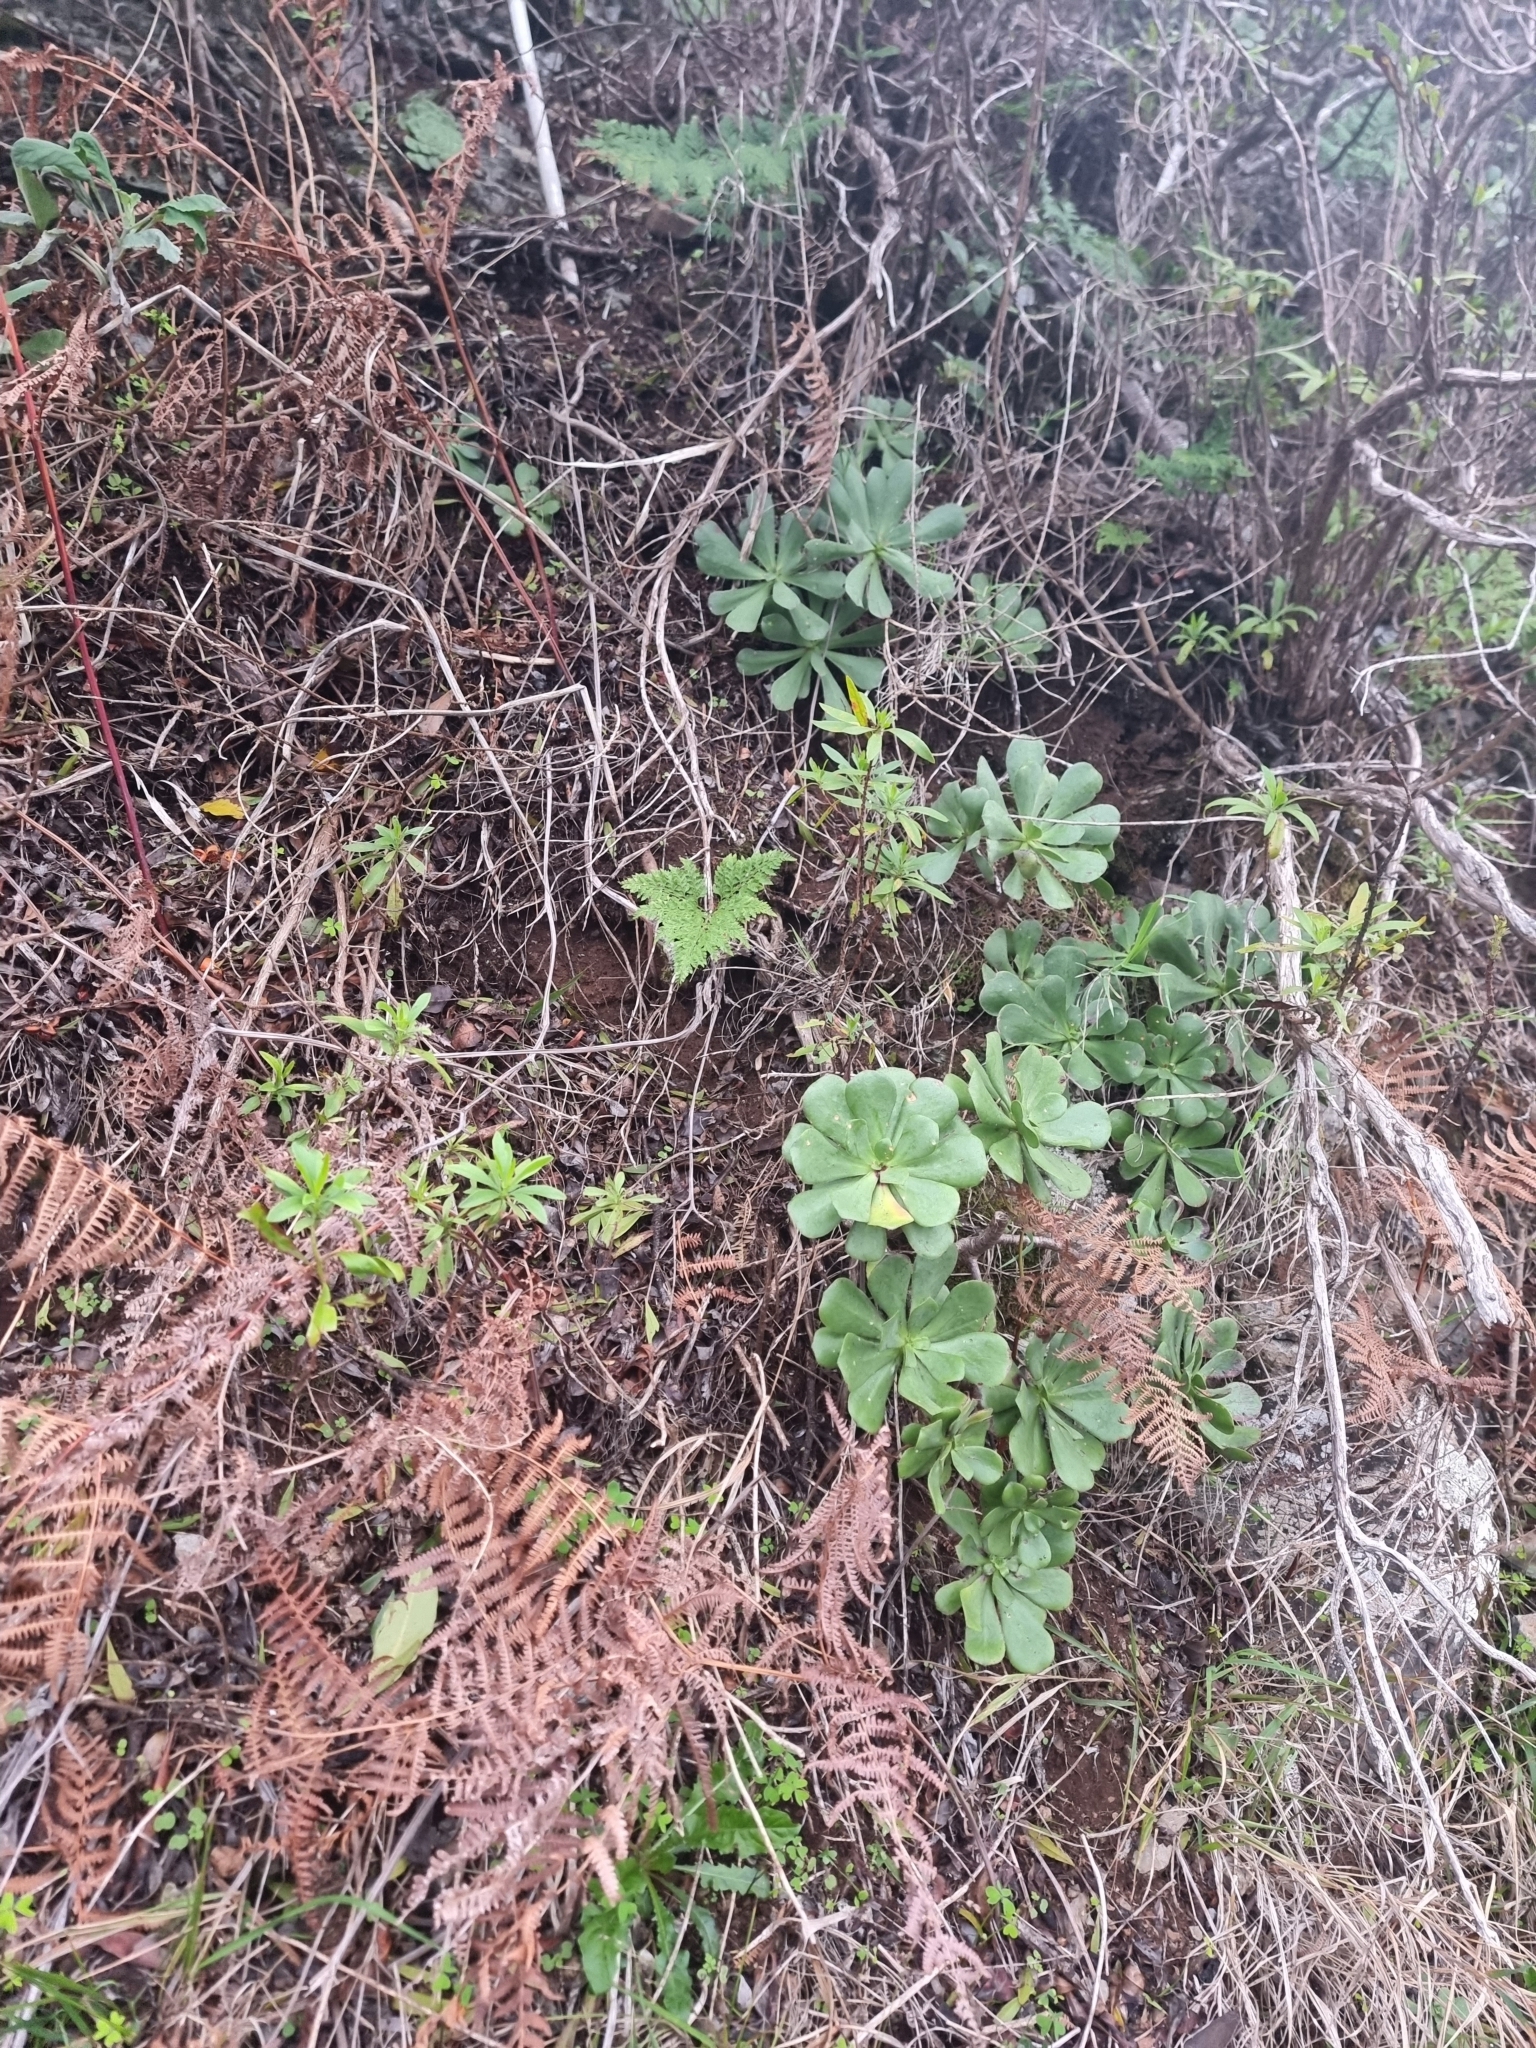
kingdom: Plantae
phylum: Tracheophyta
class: Polypodiopsida
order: Polypodiales
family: Davalliaceae
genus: Davallia
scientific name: Davallia canariensis
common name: Hare's-foot fern
